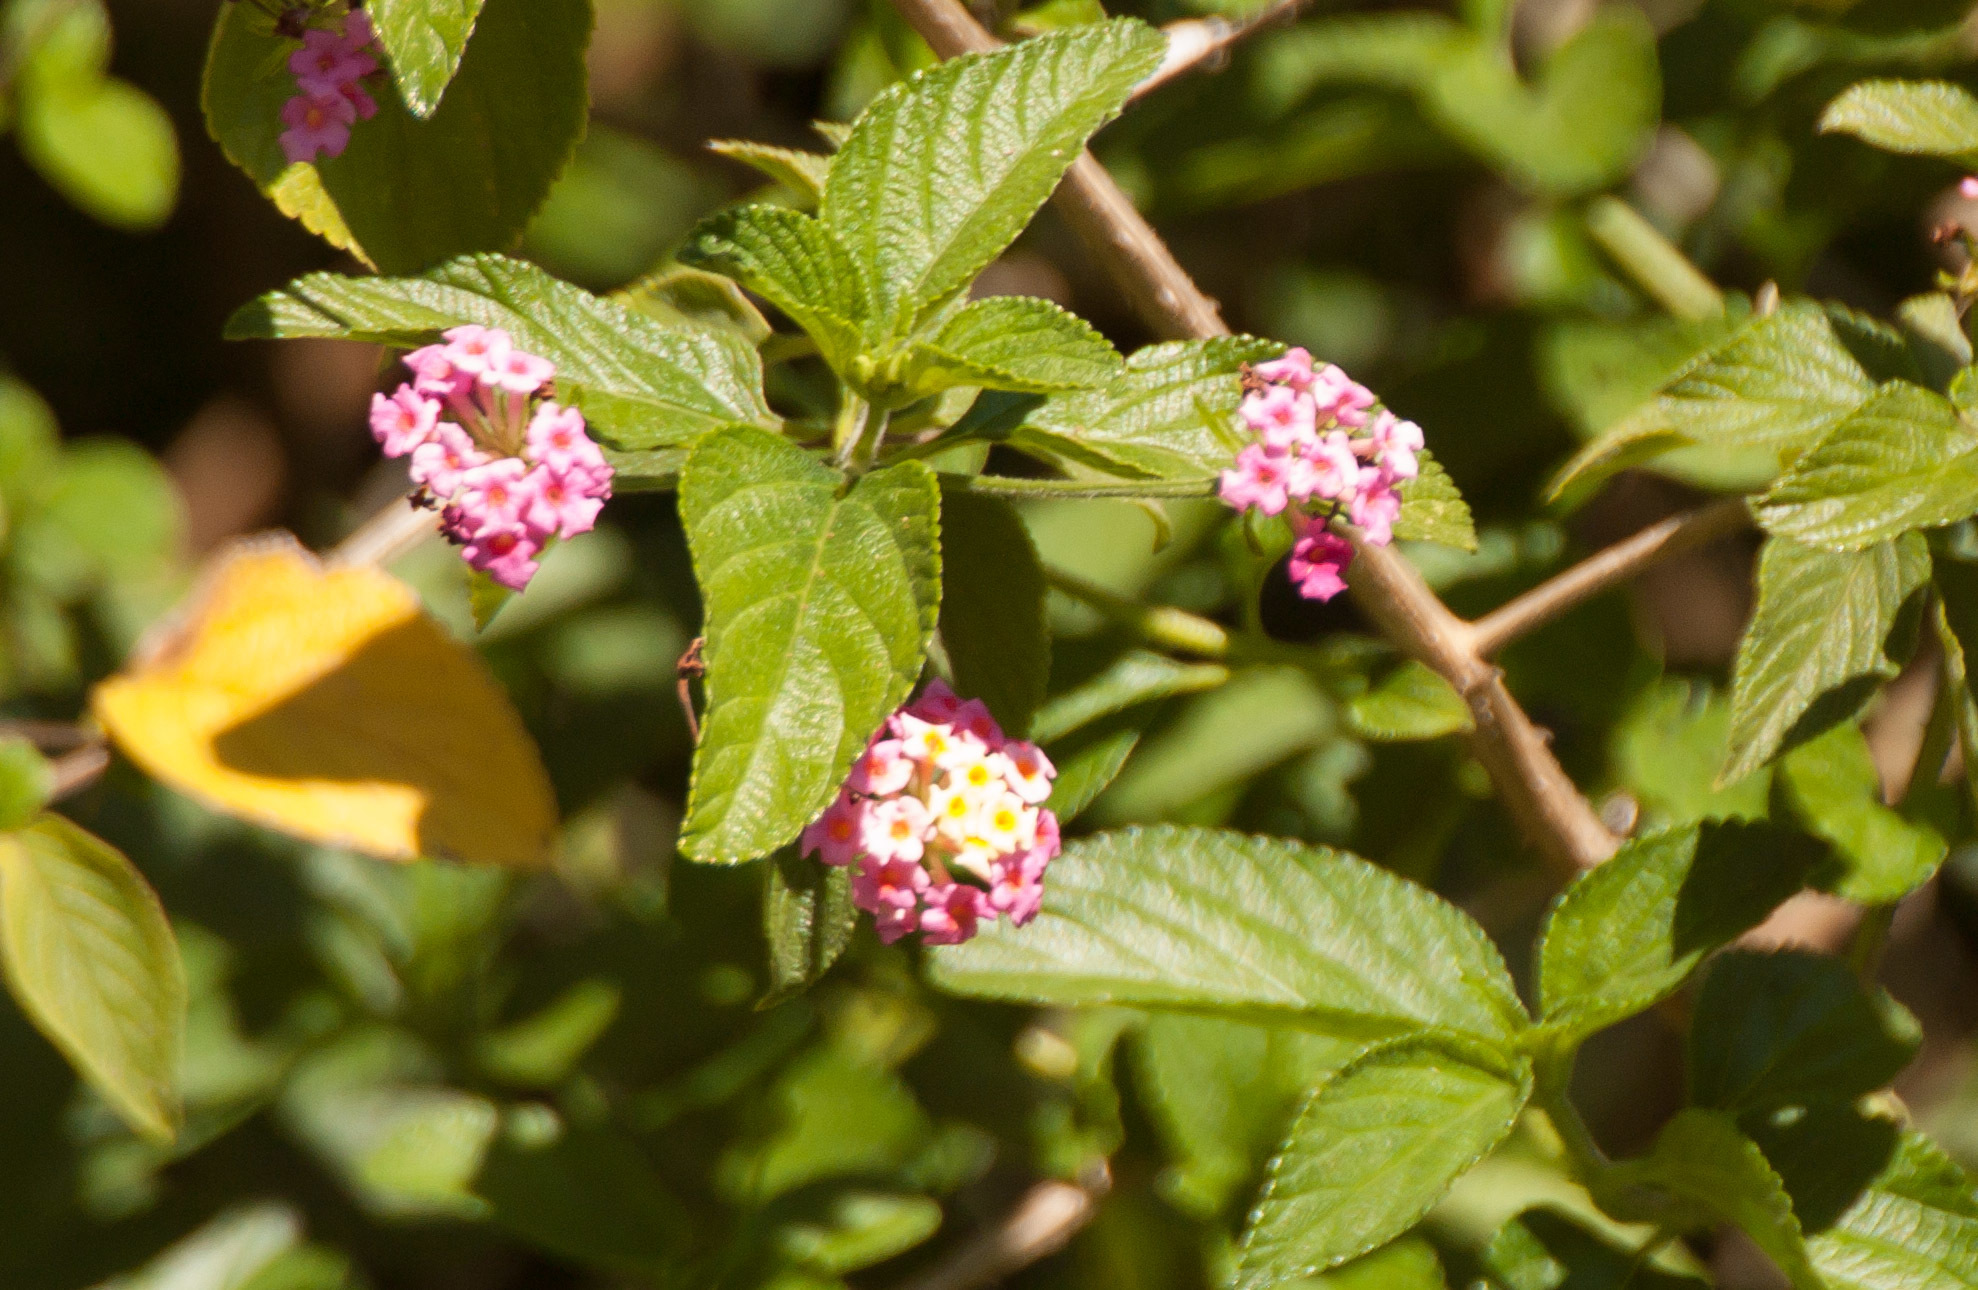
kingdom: Plantae
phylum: Tracheophyta
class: Magnoliopsida
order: Lamiales
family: Verbenaceae
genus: Lantana
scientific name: Lantana camara
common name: Lantana
